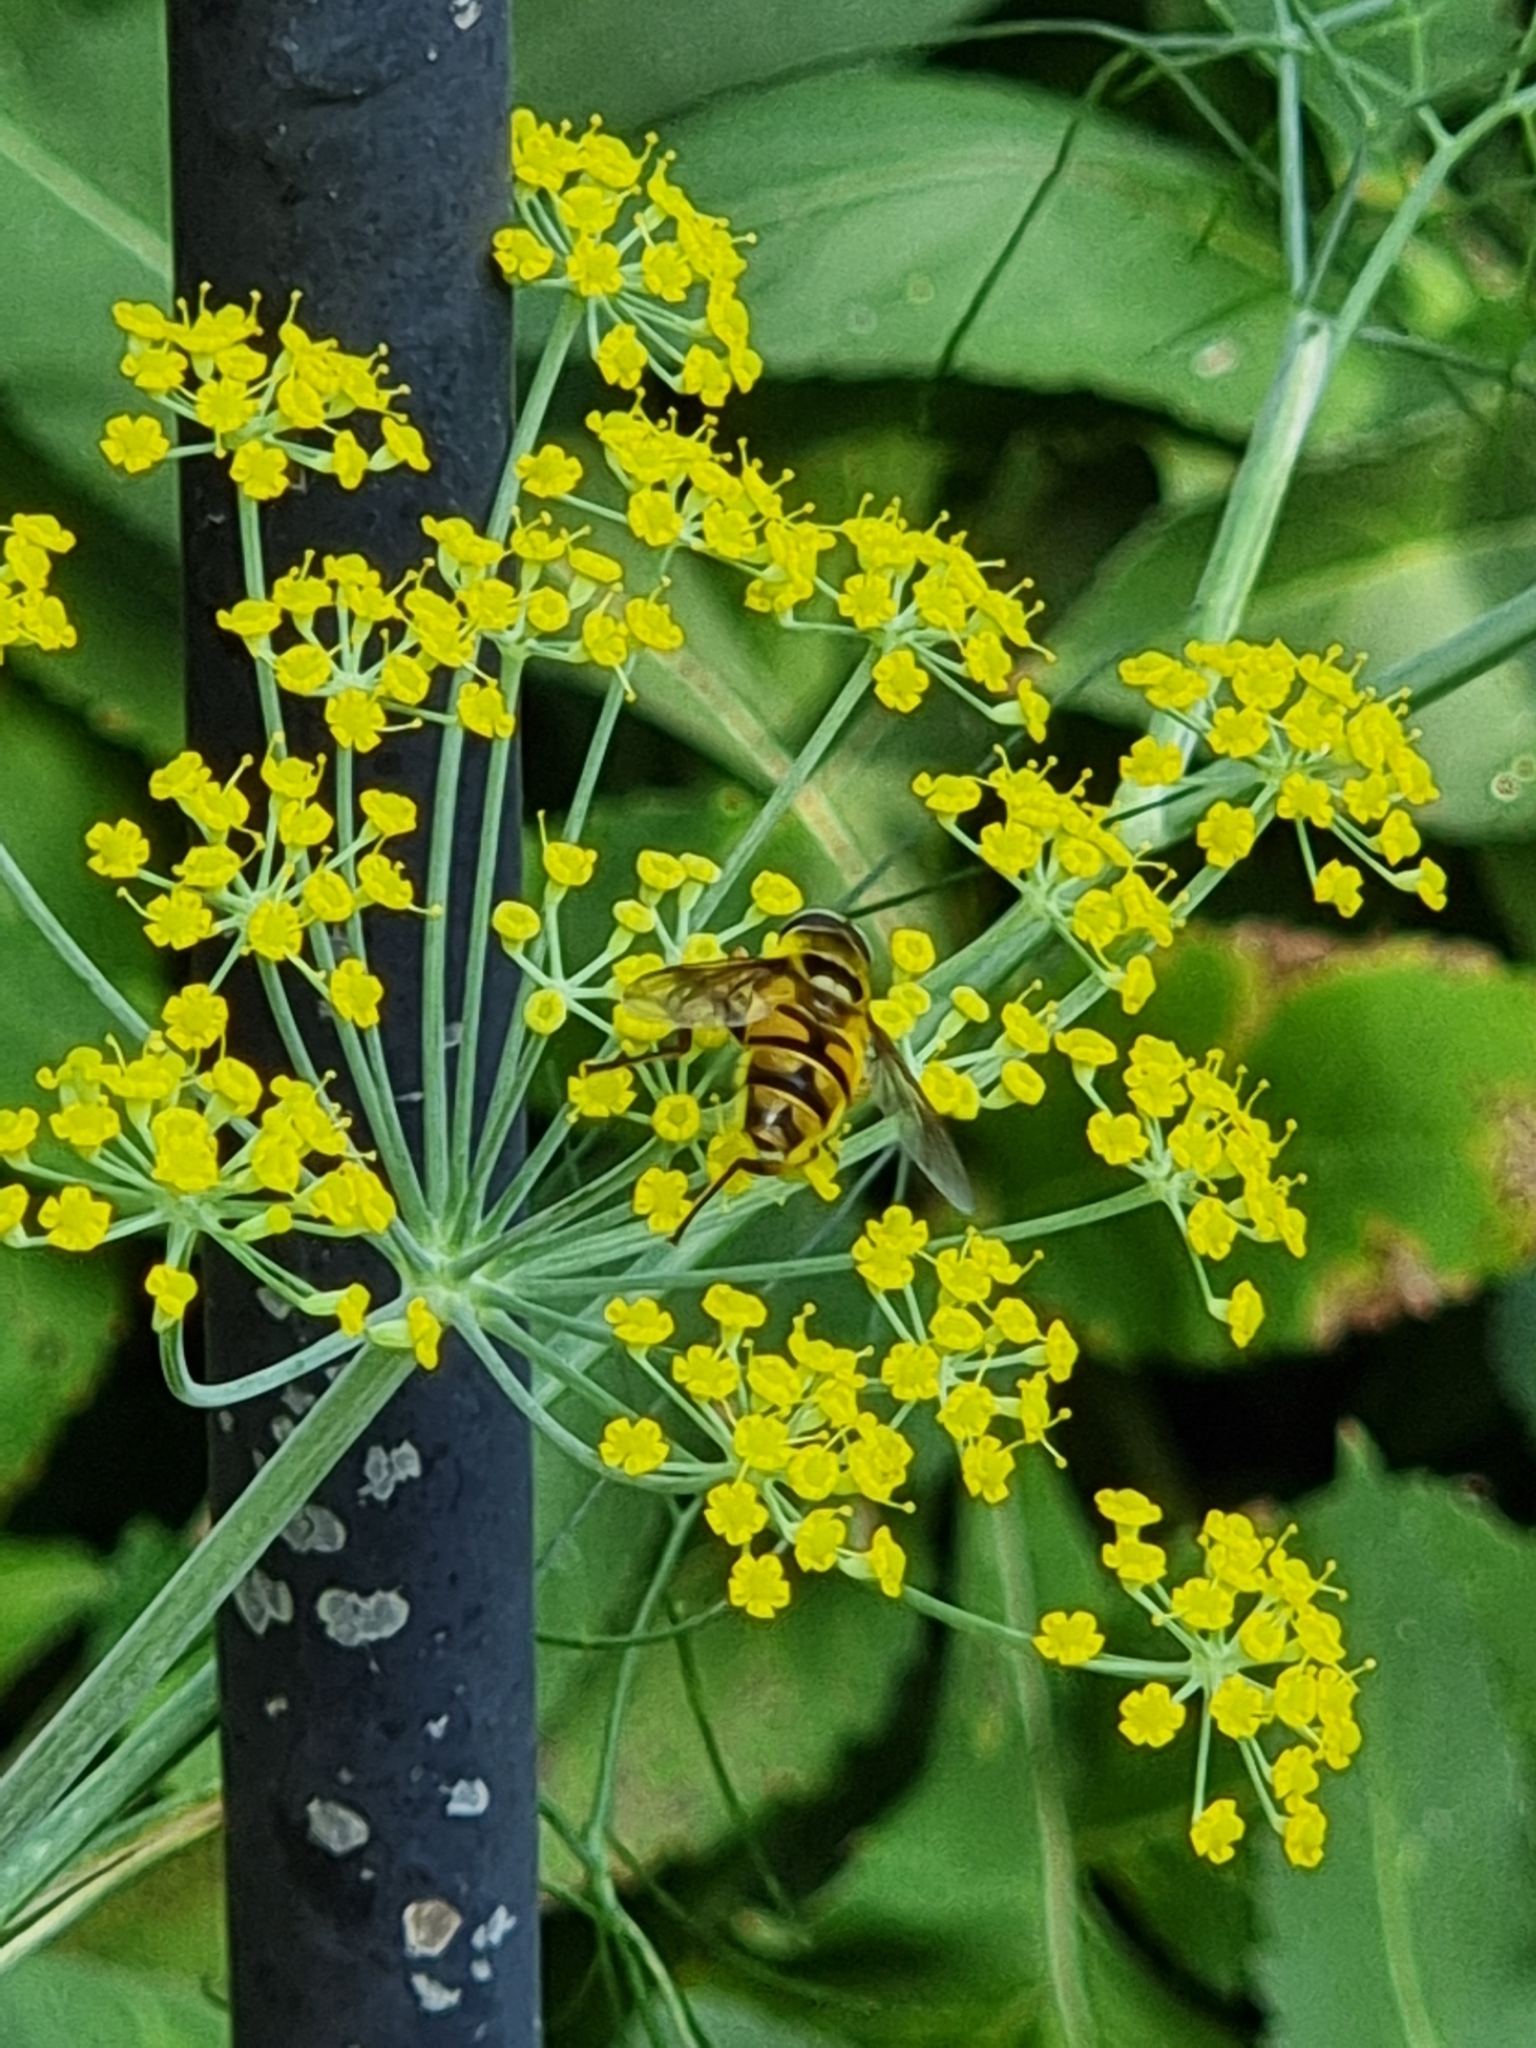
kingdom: Animalia
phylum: Arthropoda
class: Insecta
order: Diptera
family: Syrphidae
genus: Myathropa
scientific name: Myathropa florea
